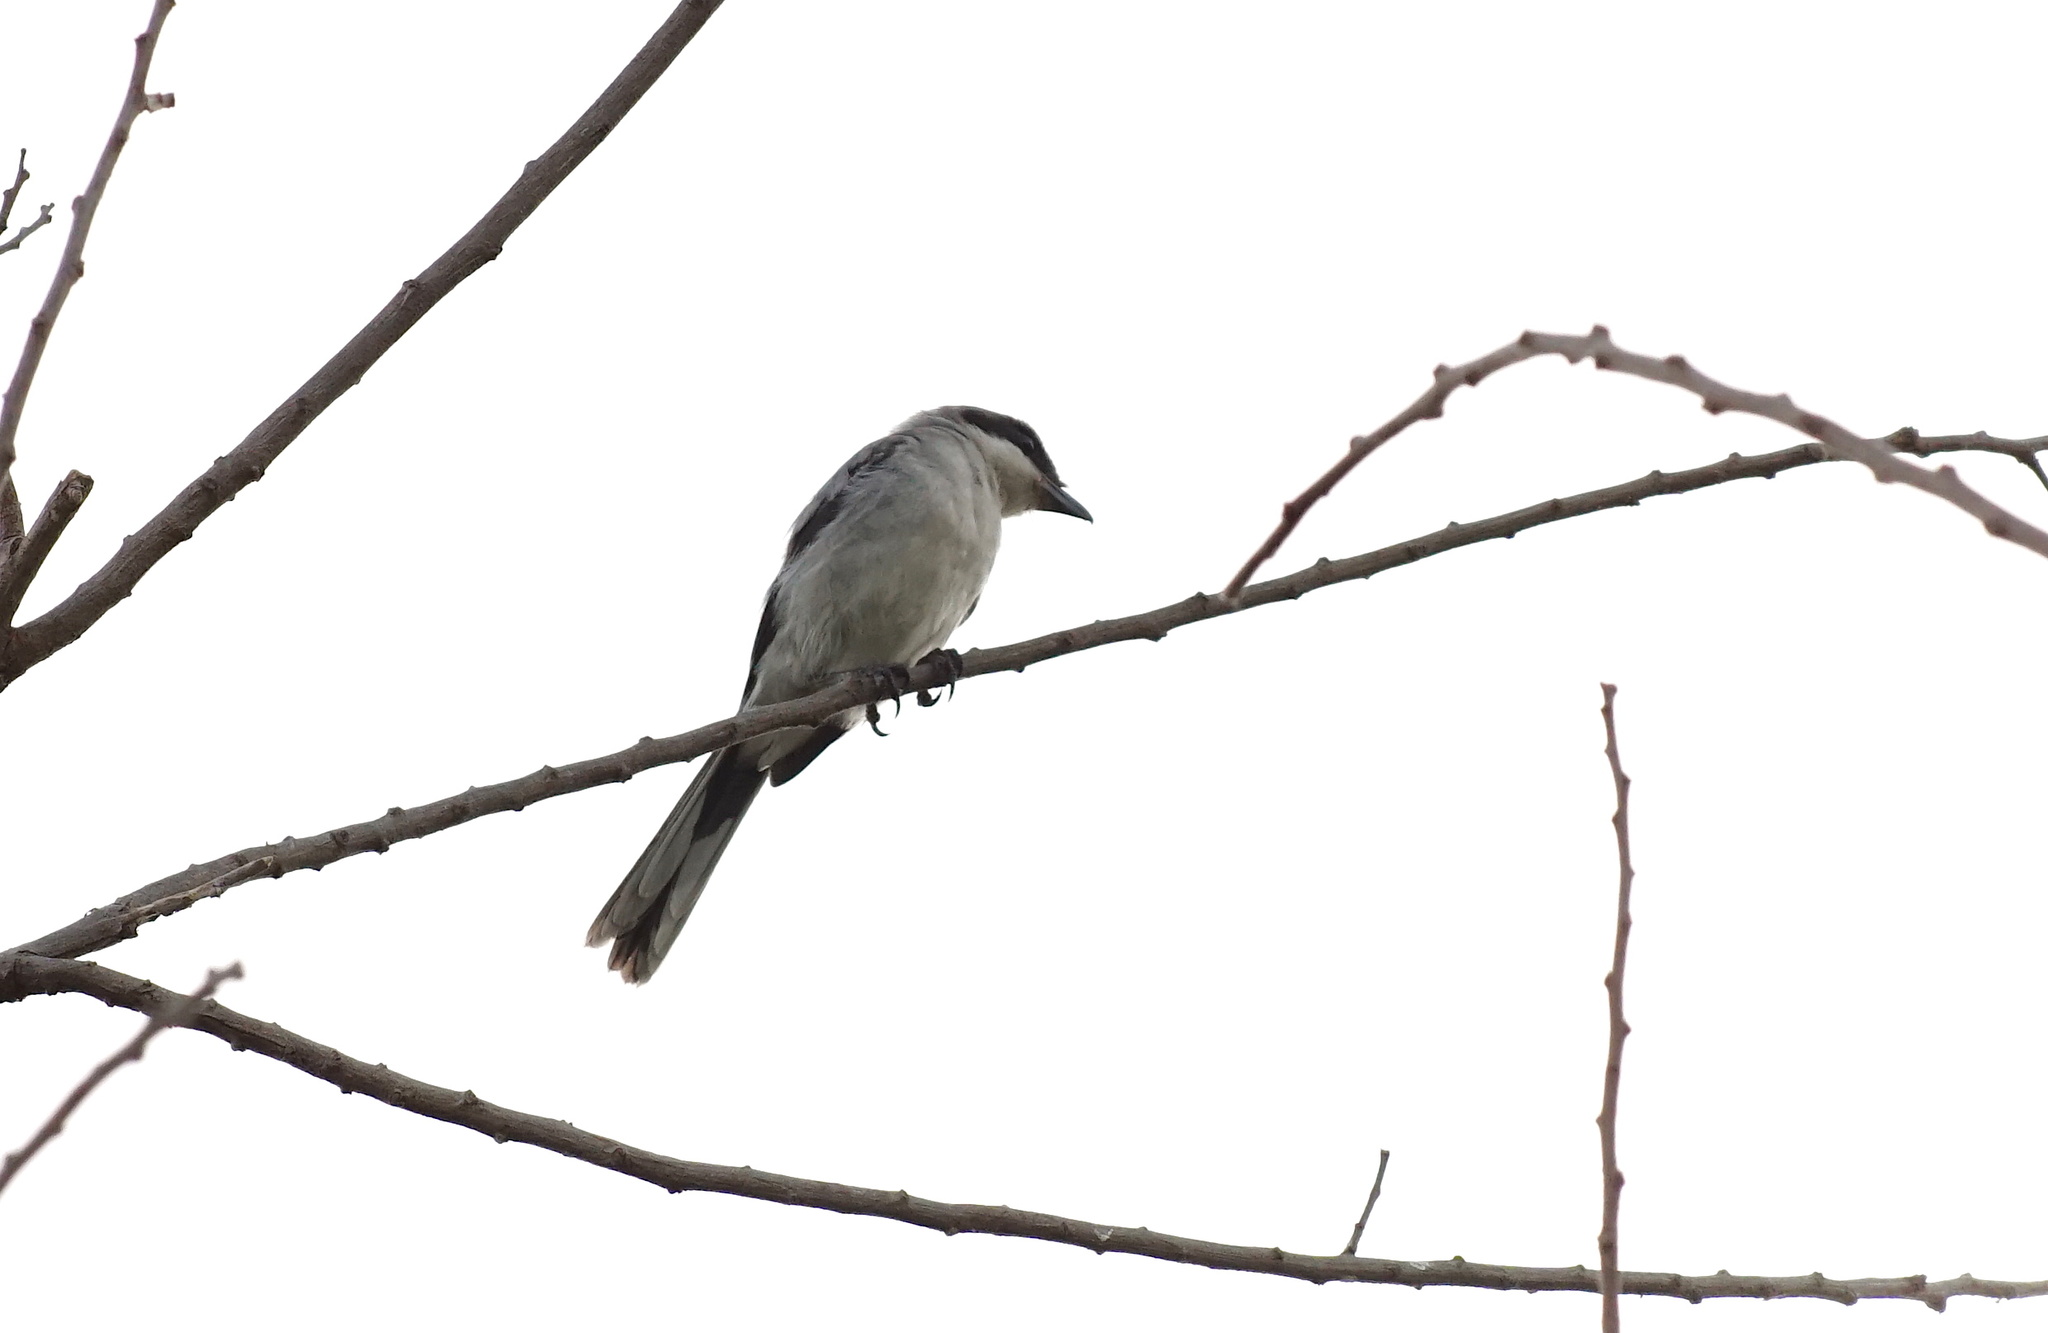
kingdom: Animalia
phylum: Chordata
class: Aves
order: Passeriformes
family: Laniidae
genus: Lanius
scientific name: Lanius ludovicianus
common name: Loggerhead shrike
